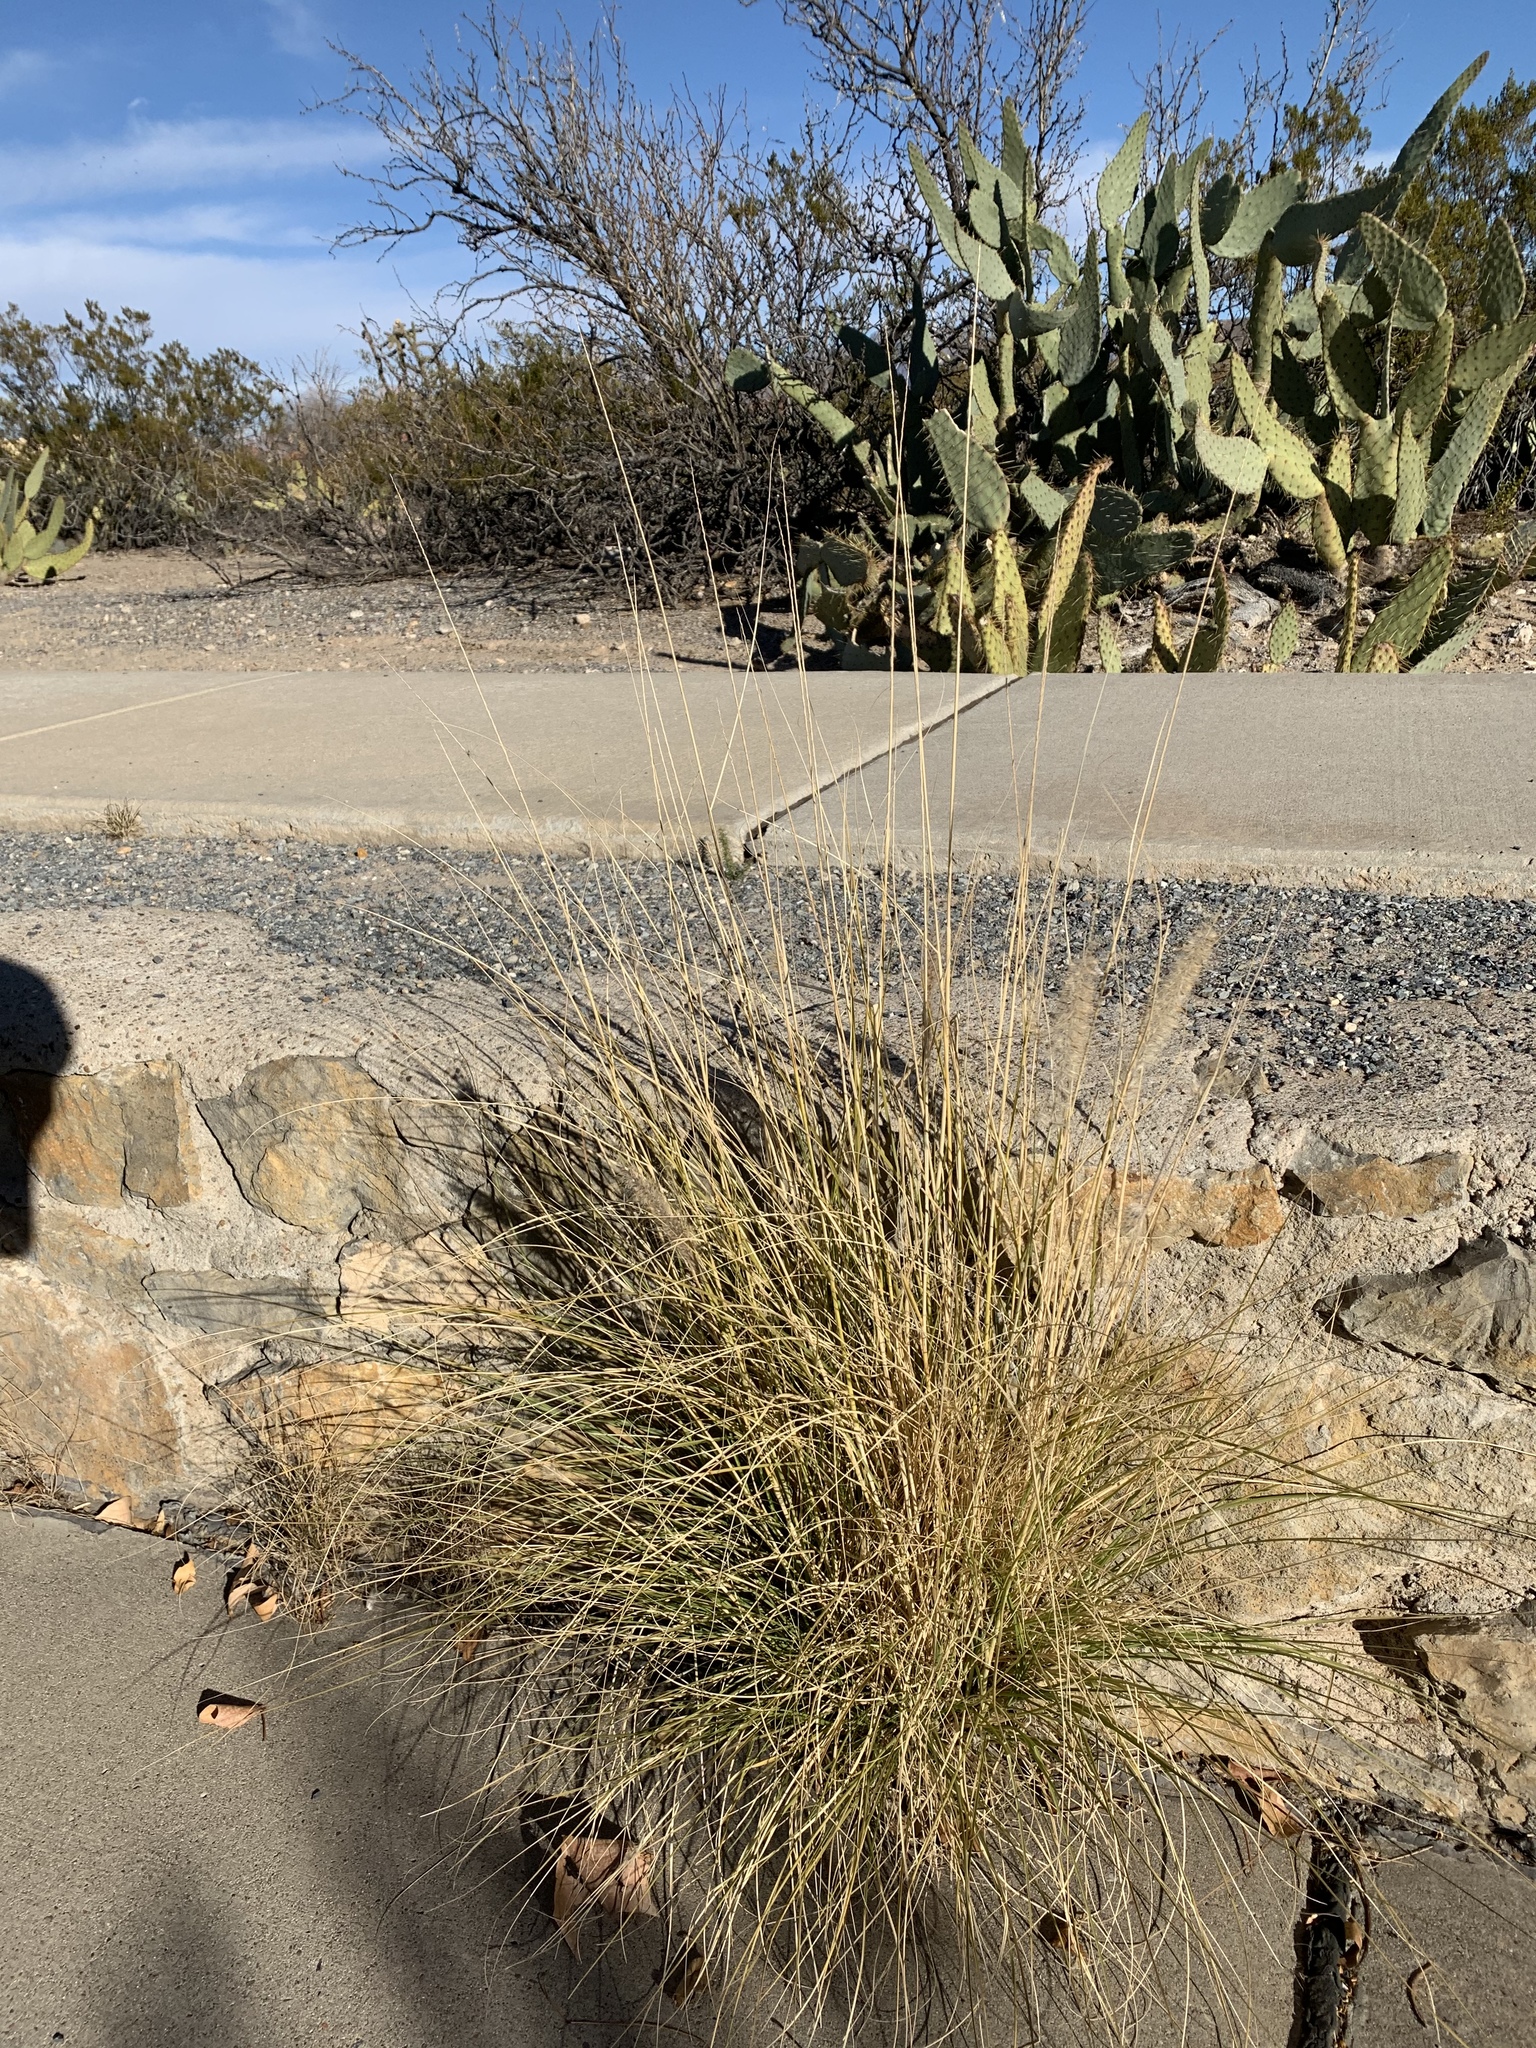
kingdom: Plantae
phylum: Tracheophyta
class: Liliopsida
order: Poales
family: Poaceae
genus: Cenchrus
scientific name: Cenchrus setaceus
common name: Crimson fountaingrass
